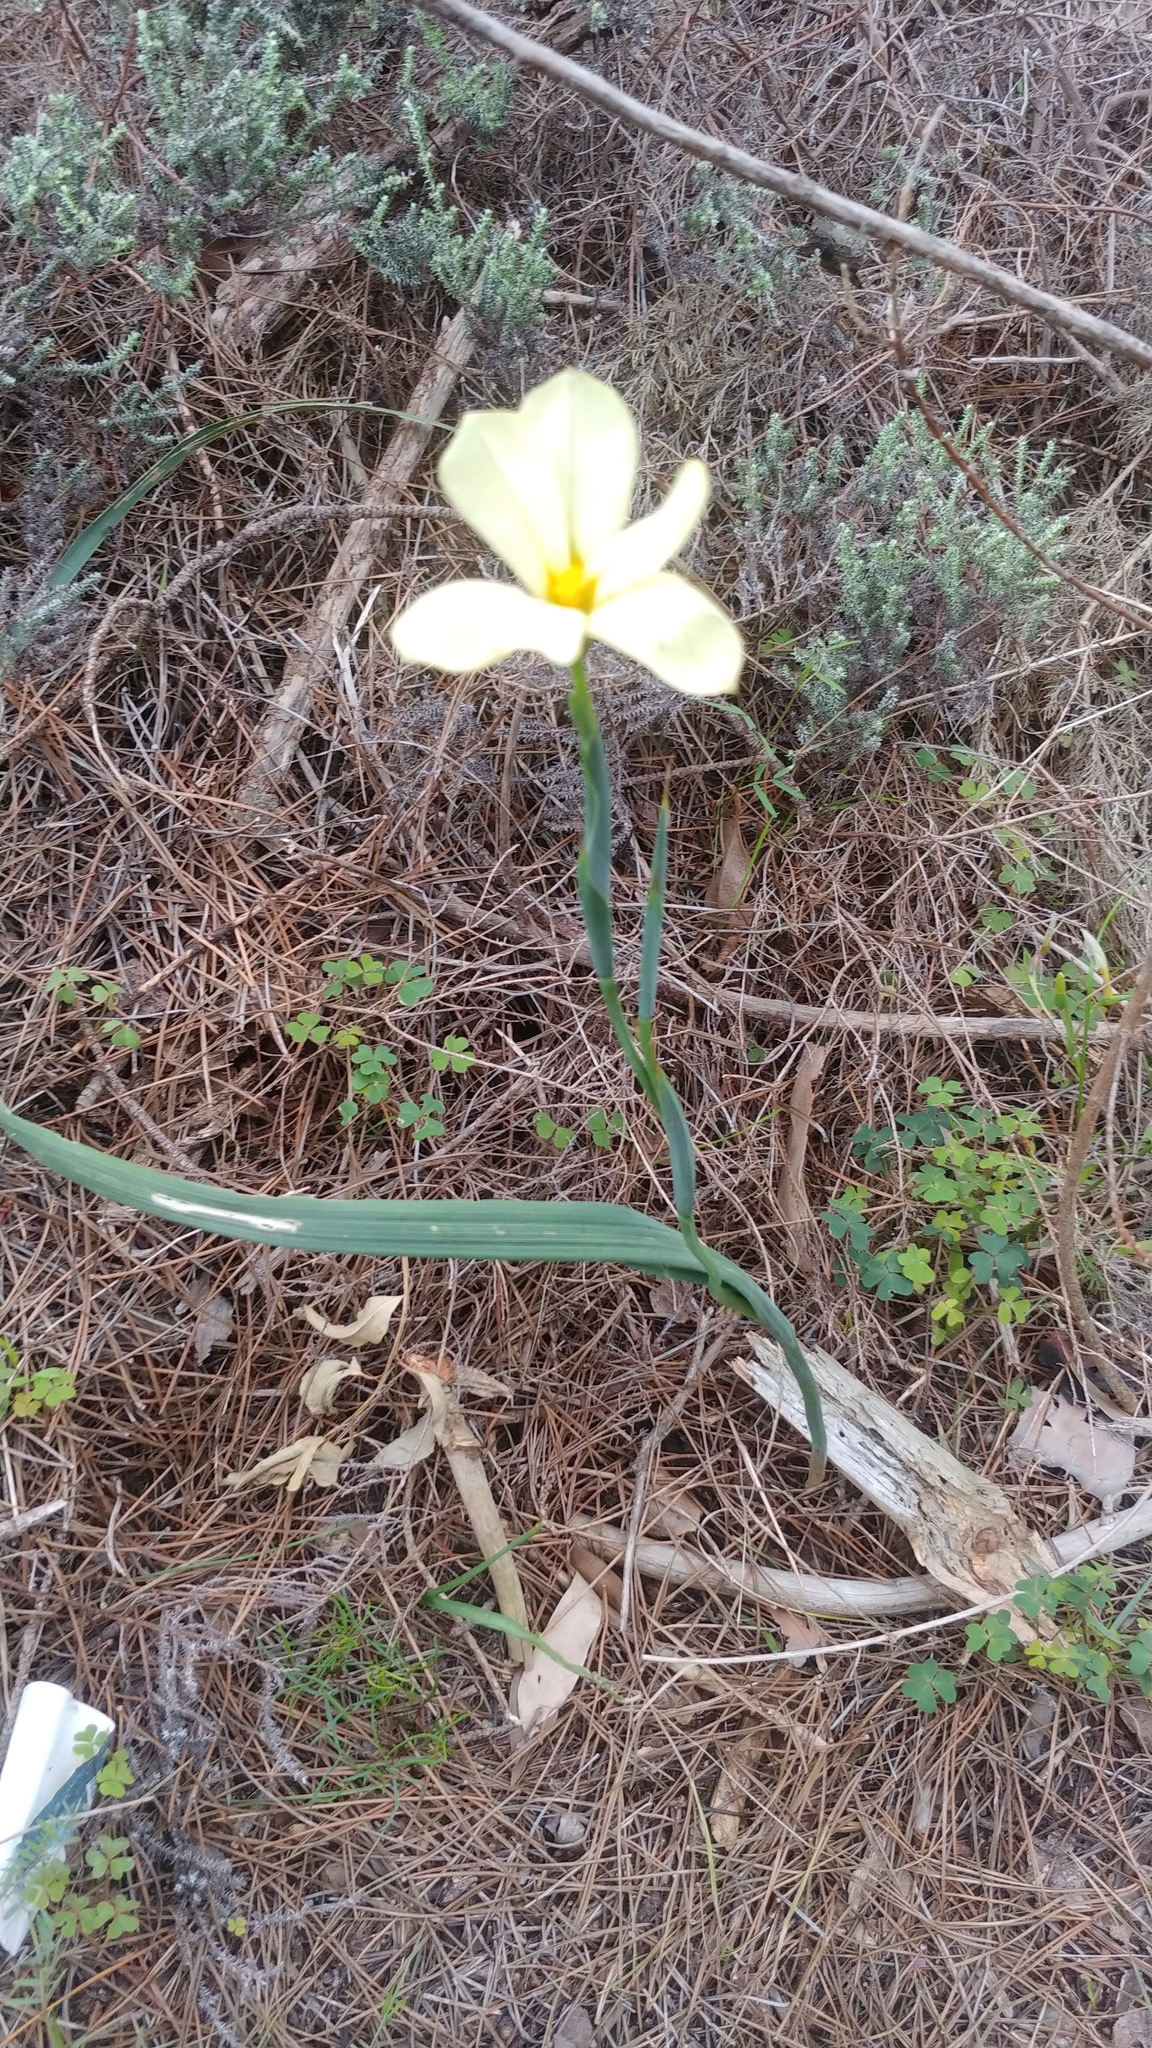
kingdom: Plantae
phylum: Tracheophyta
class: Liliopsida
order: Asparagales
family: Iridaceae
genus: Moraea
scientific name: Moraea collina
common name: Cape-tulip
